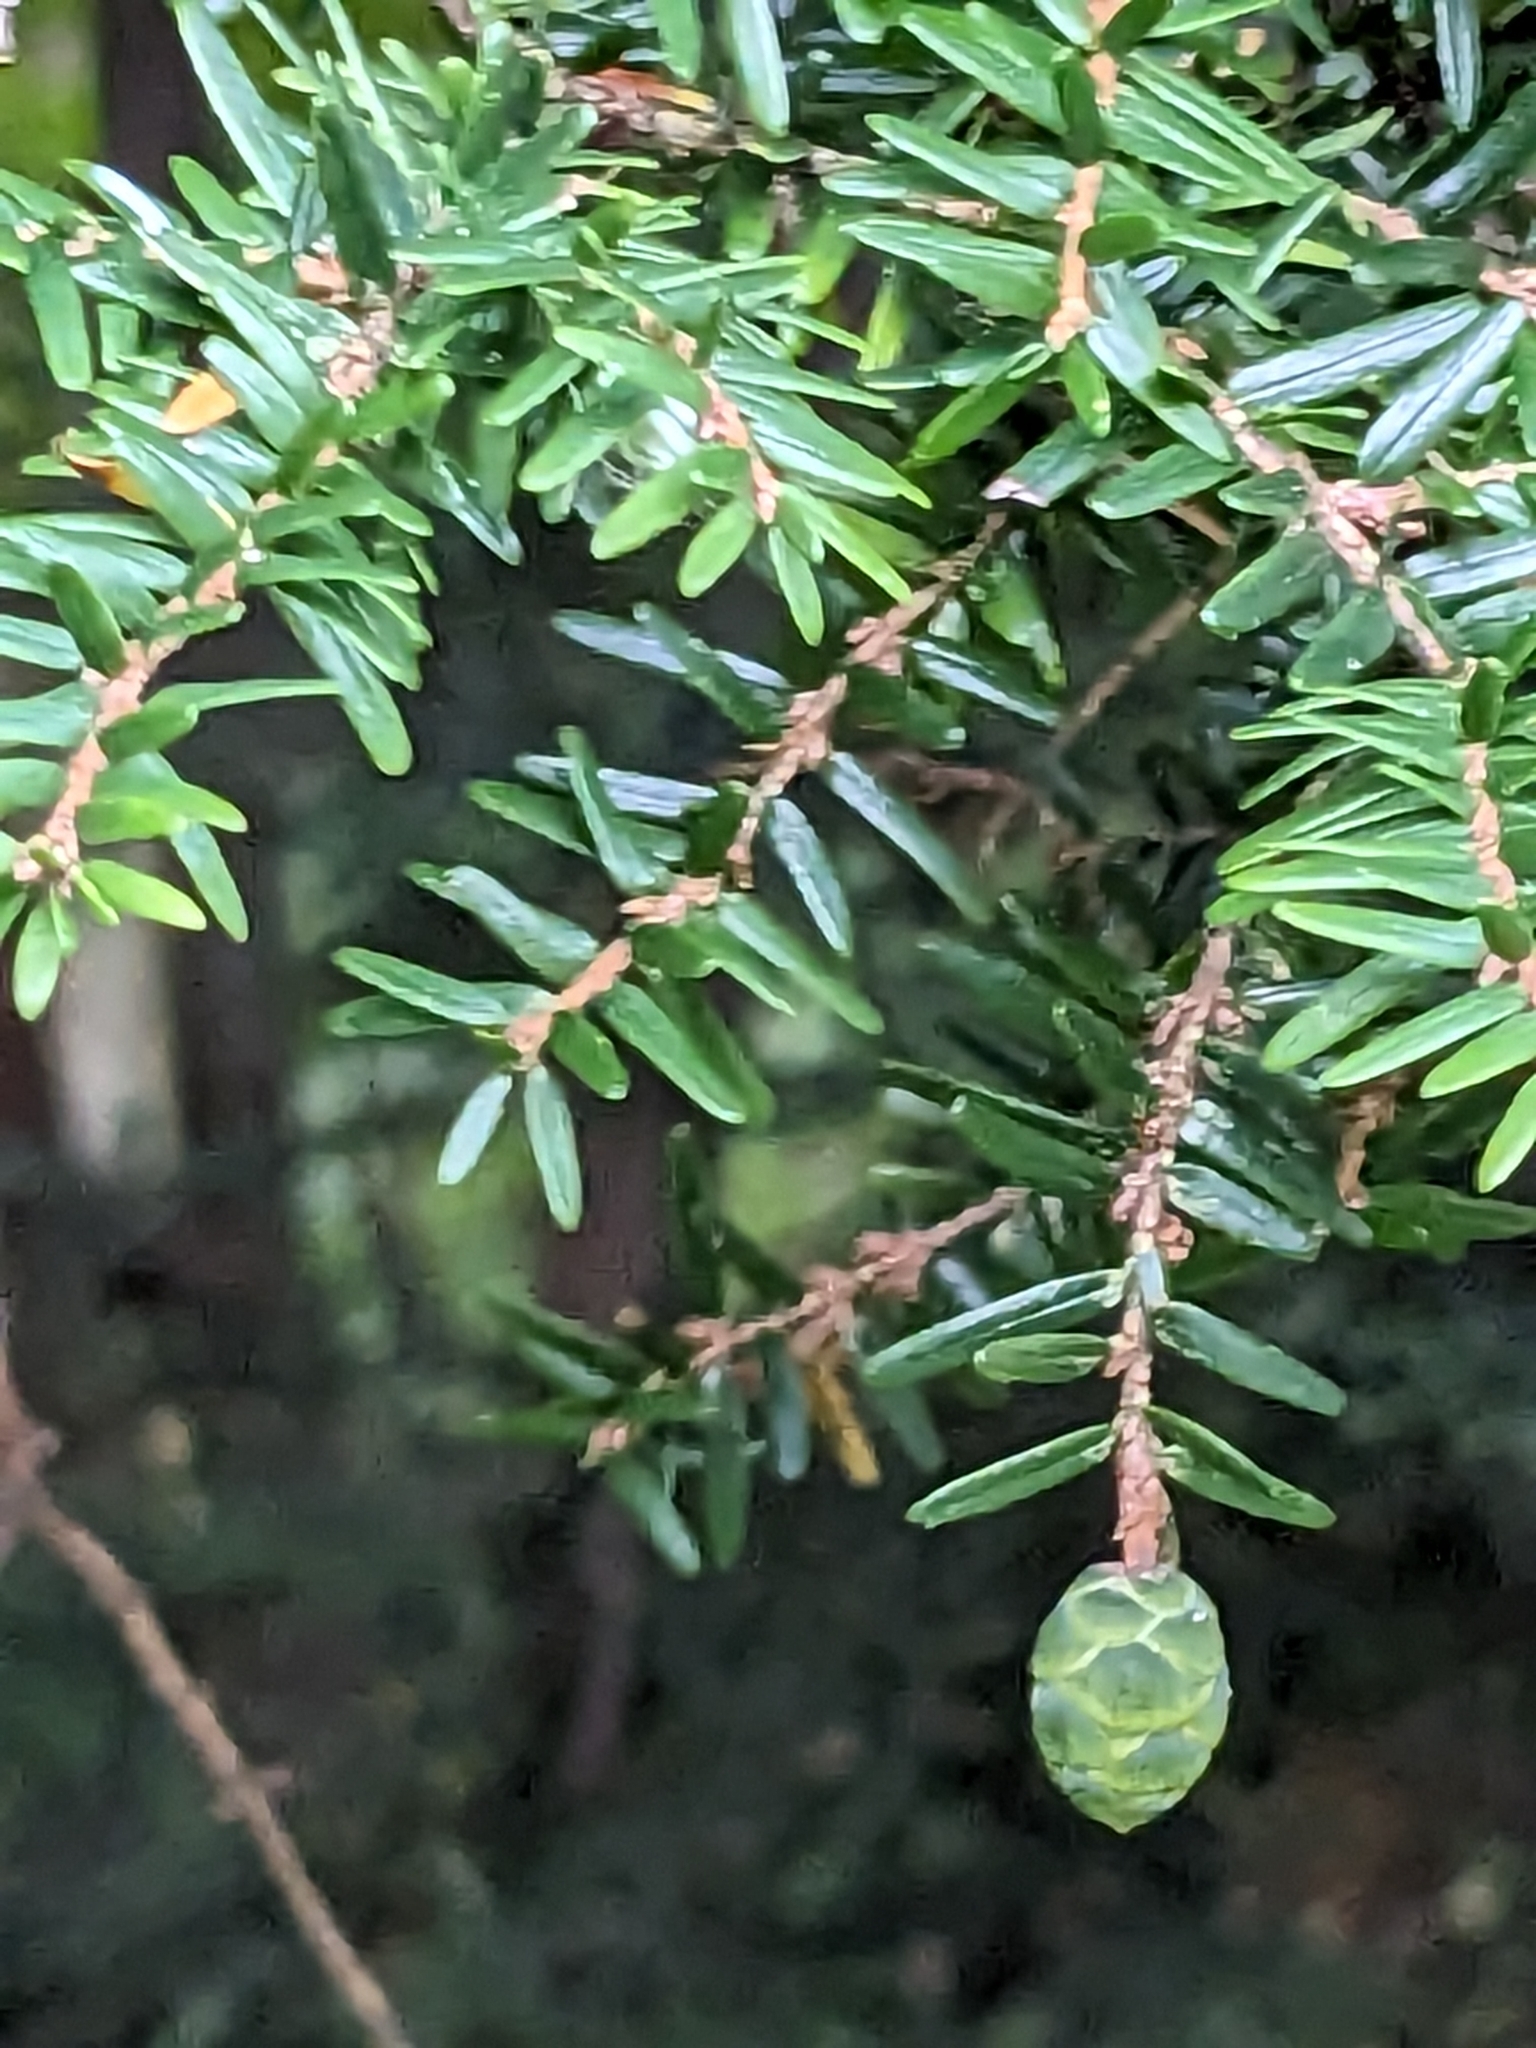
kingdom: Plantae
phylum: Tracheophyta
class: Pinopsida
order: Pinales
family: Pinaceae
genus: Tsuga
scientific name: Tsuga canadensis
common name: Eastern hemlock
